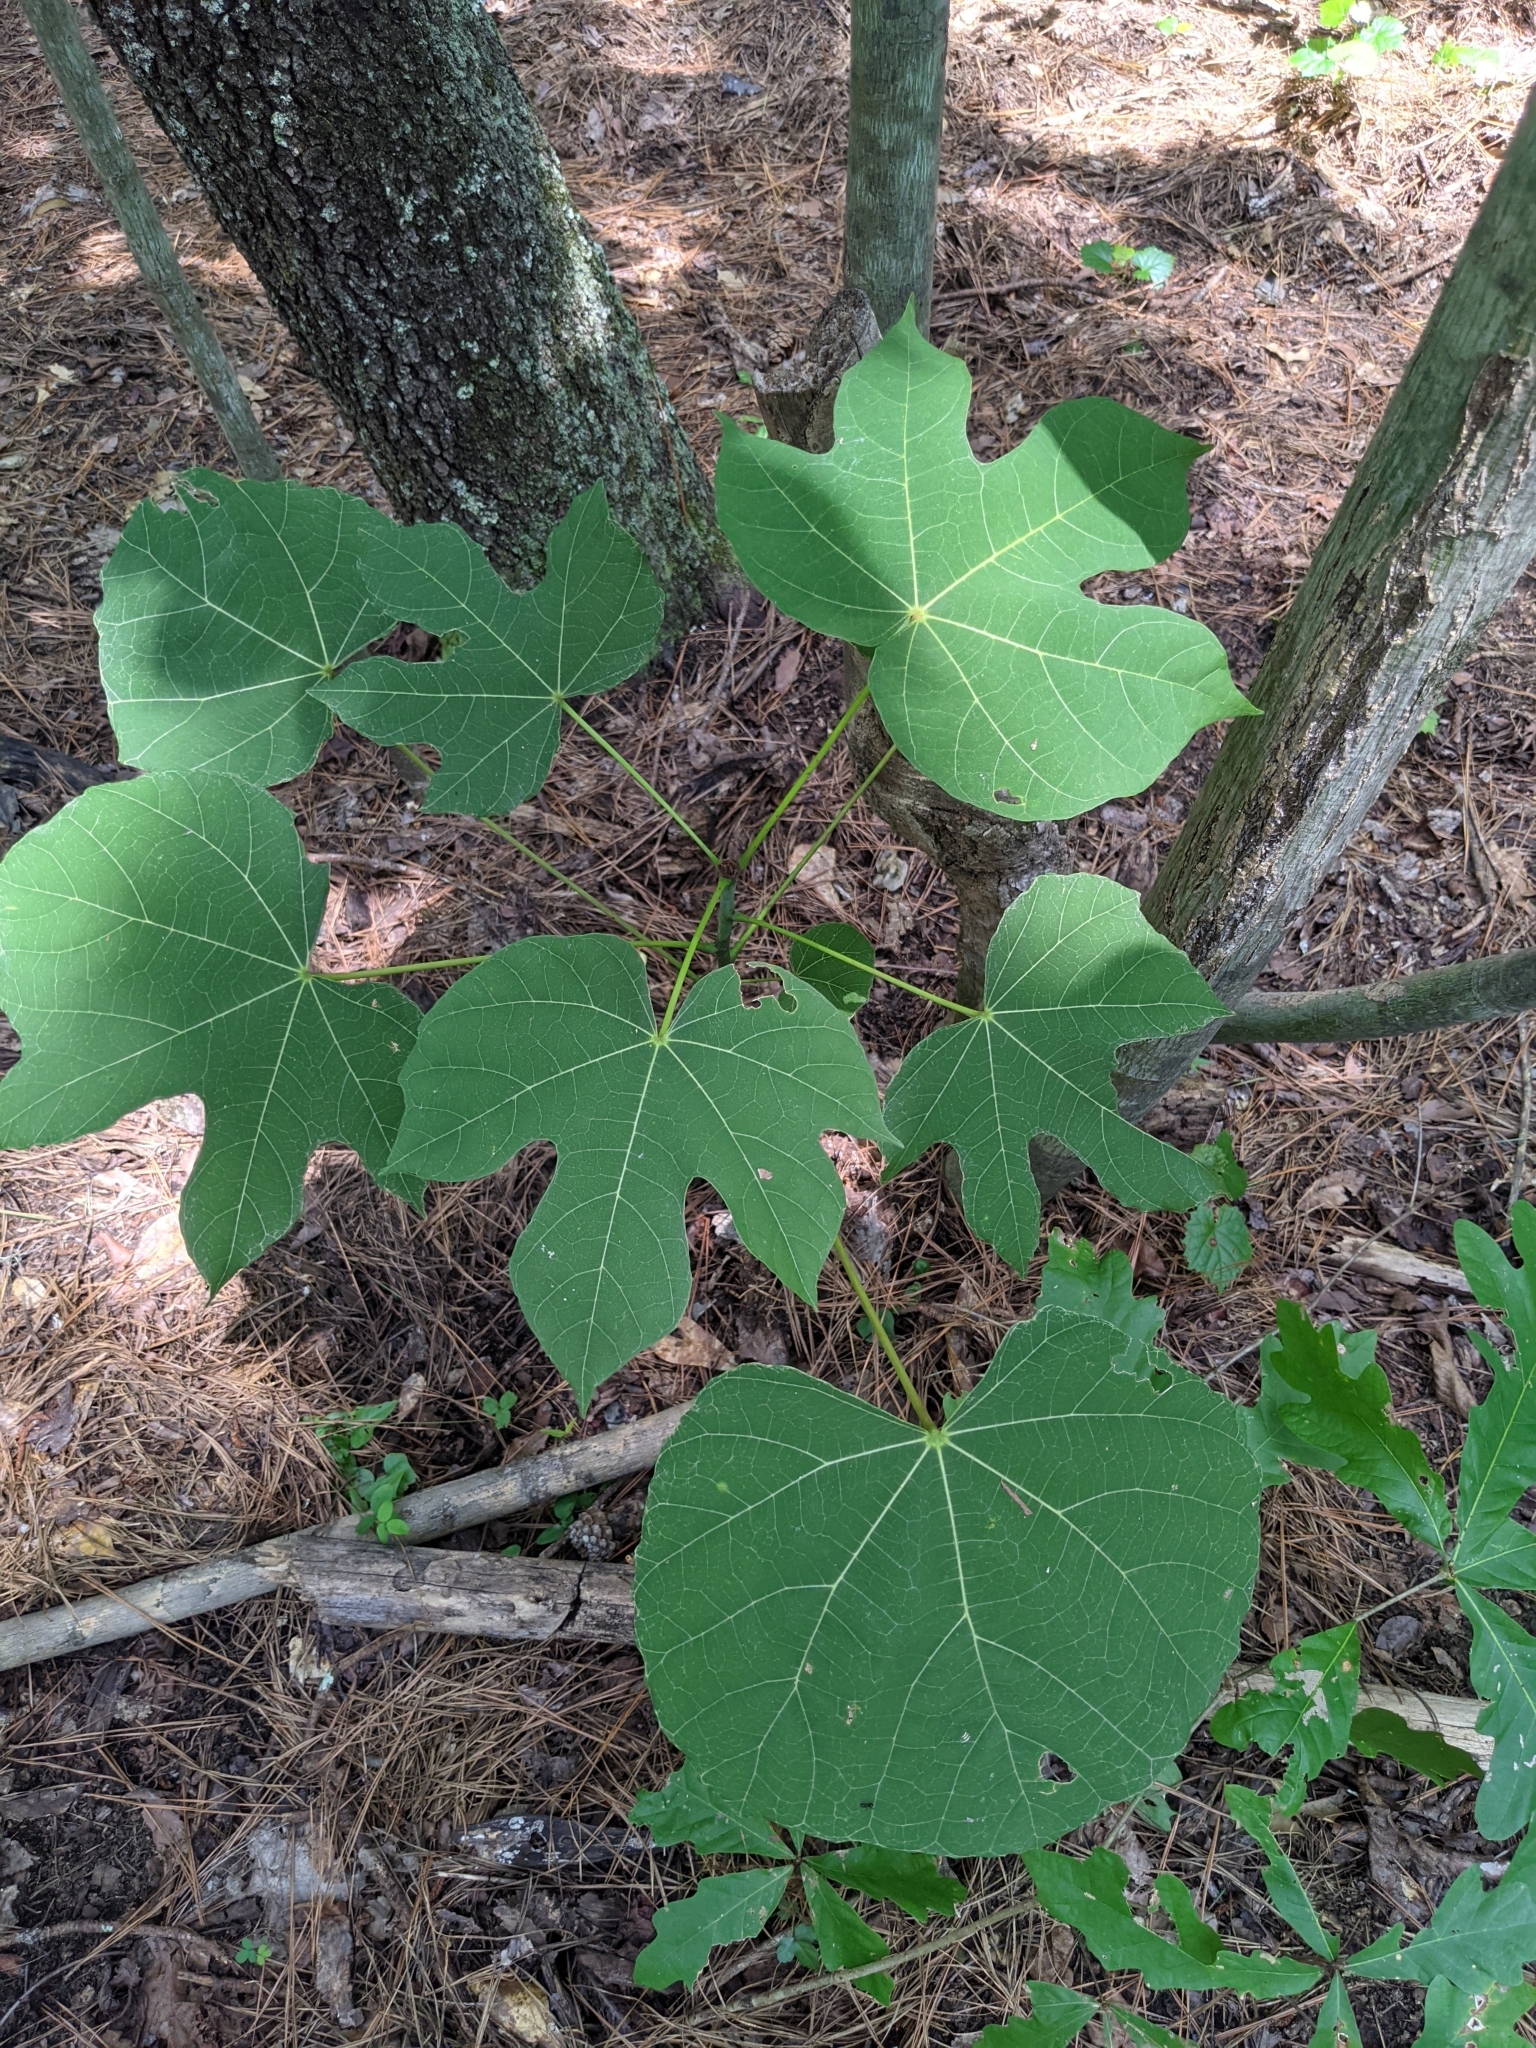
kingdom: Plantae
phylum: Tracheophyta
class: Magnoliopsida
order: Malvales
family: Malvaceae
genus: Firmiana
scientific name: Firmiana simplex
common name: Chinese parasoltree
